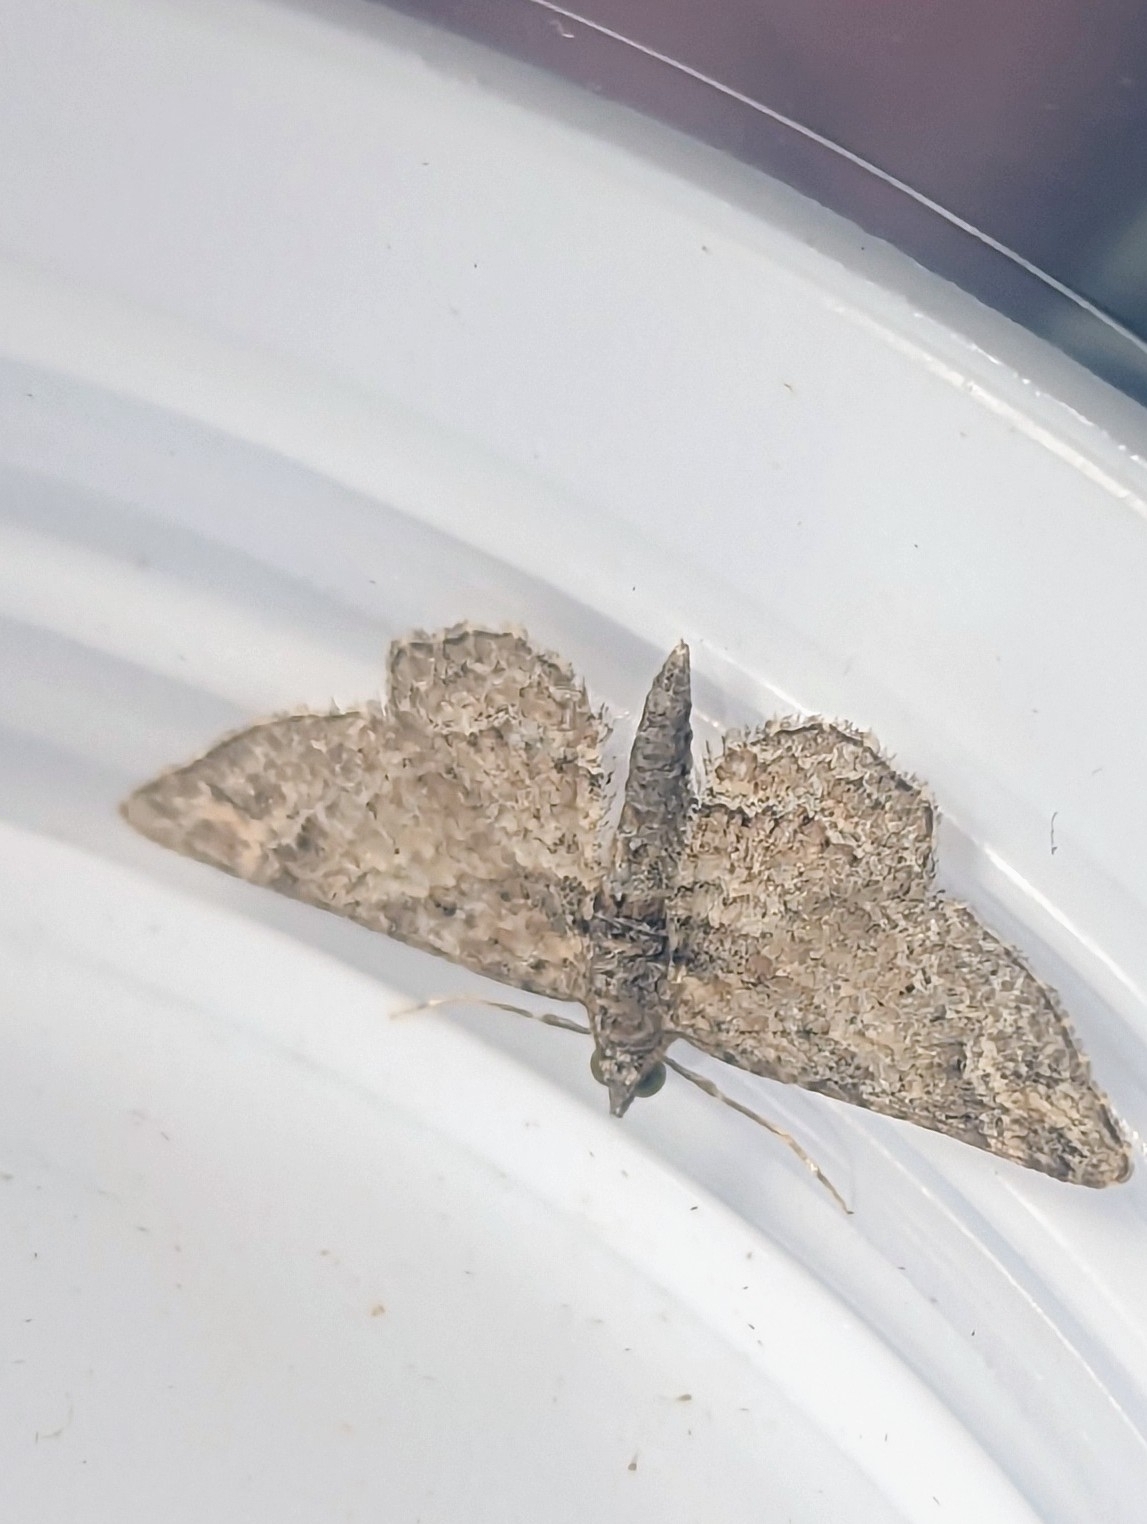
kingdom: Animalia
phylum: Arthropoda
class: Insecta
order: Lepidoptera
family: Geometridae
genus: Gymnoscelis
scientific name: Gymnoscelis rufifasciata
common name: Double-striped pug
